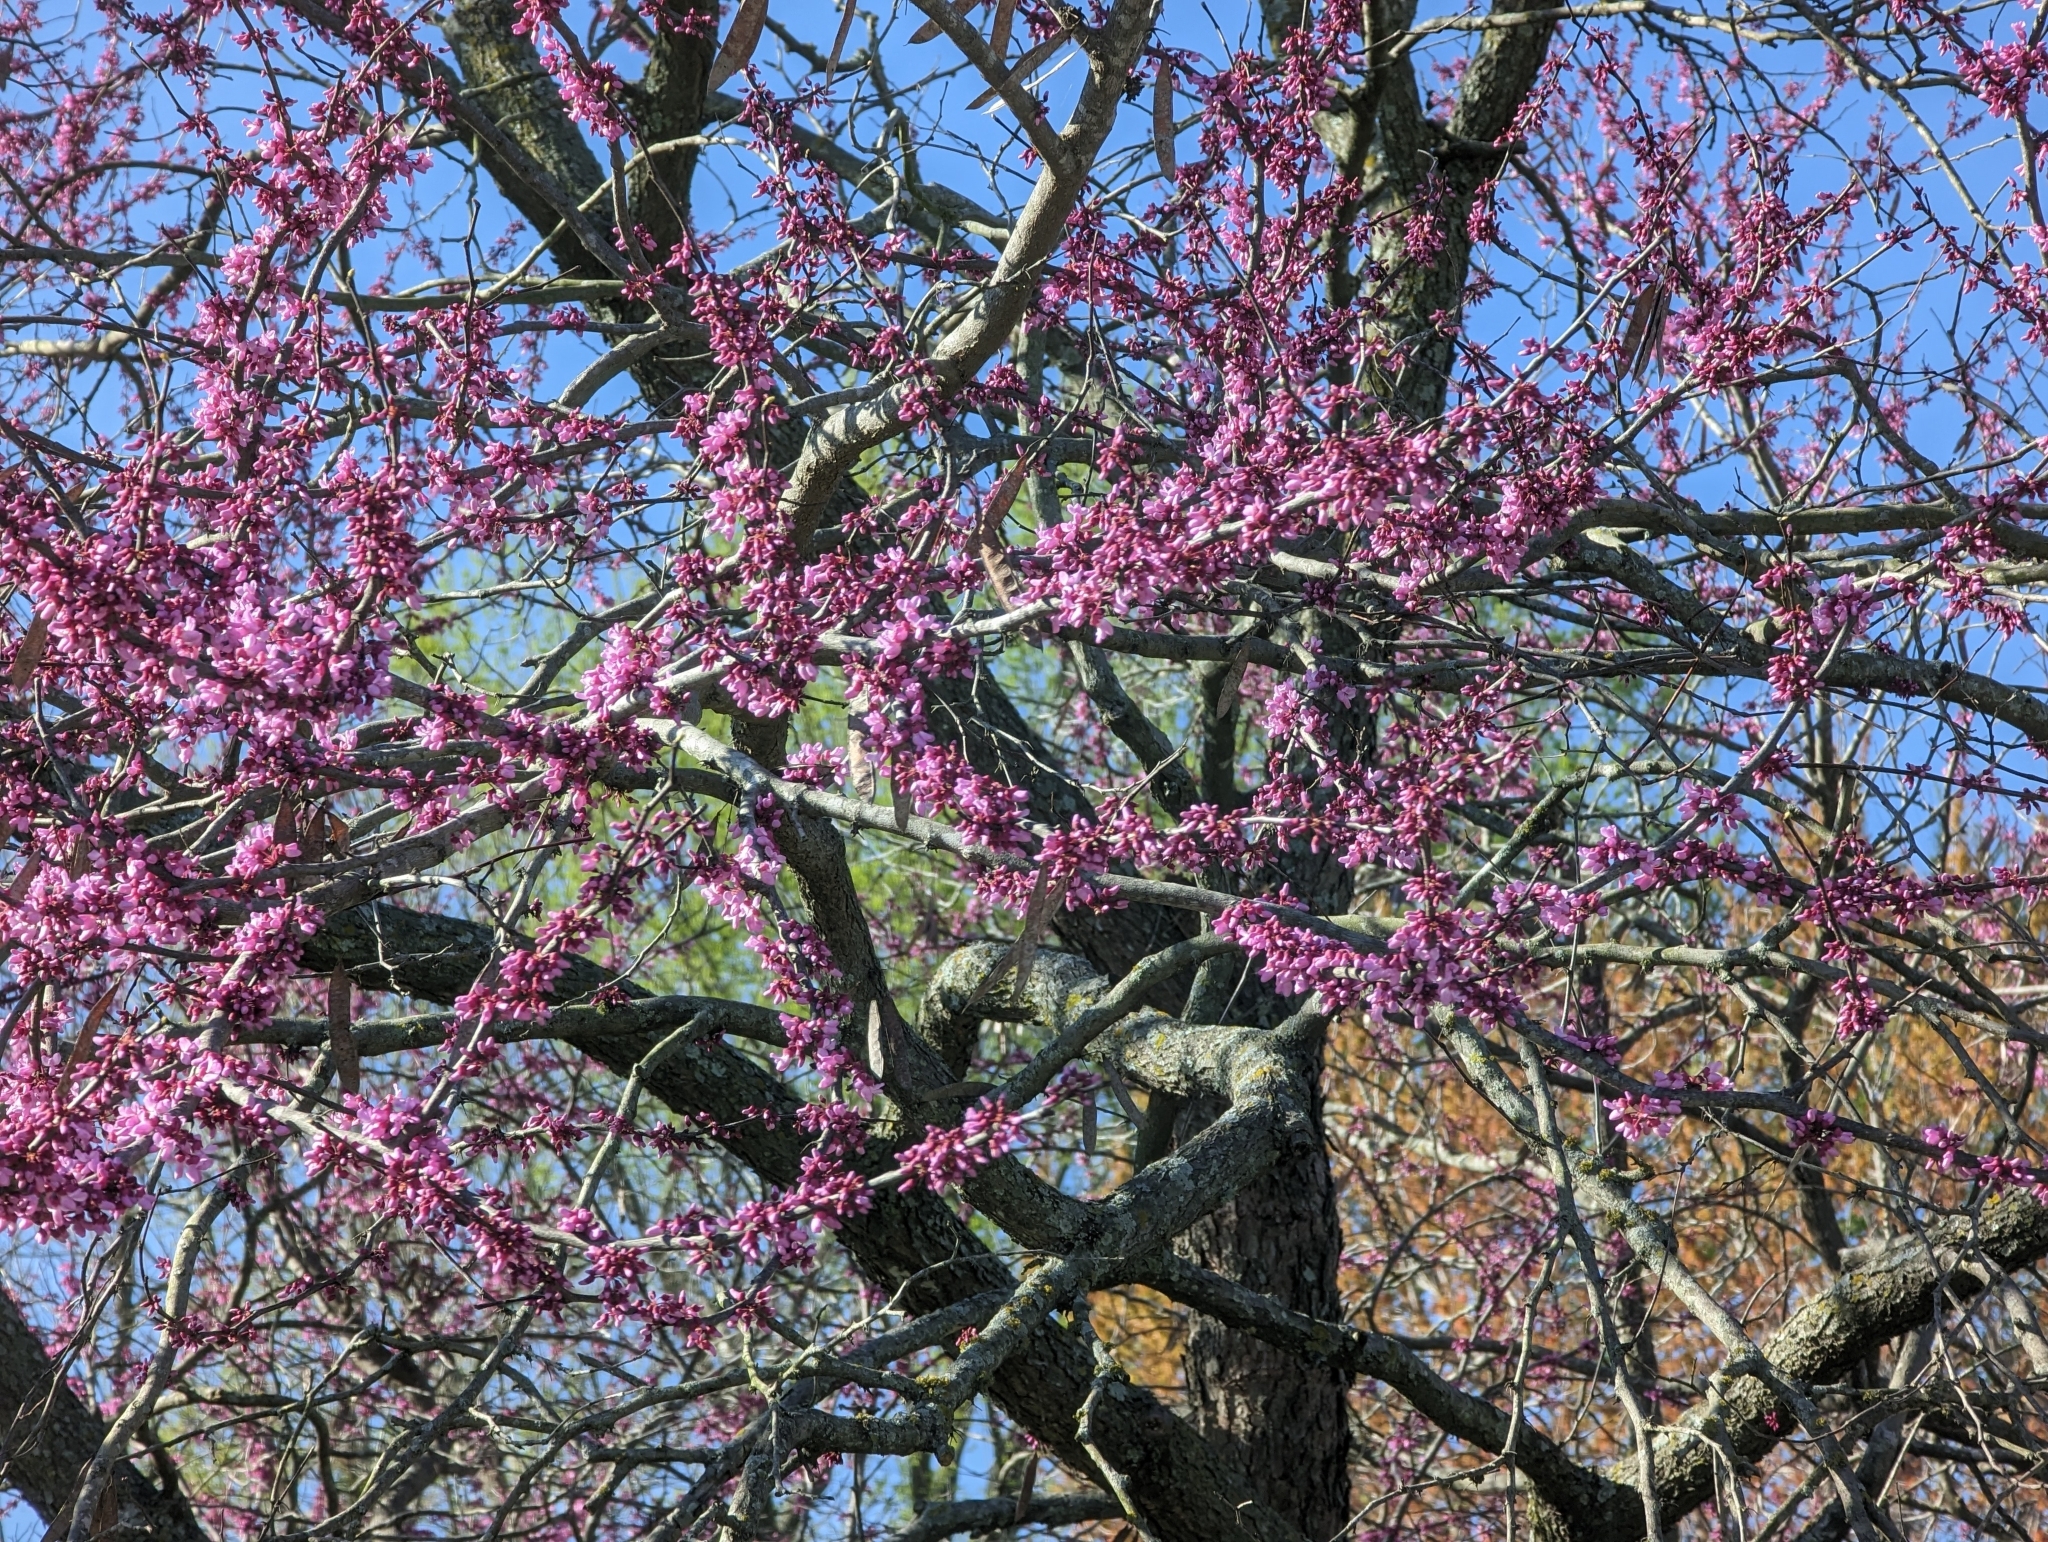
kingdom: Plantae
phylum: Tracheophyta
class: Magnoliopsida
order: Fabales
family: Fabaceae
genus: Cercis
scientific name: Cercis canadensis
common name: Eastern redbud
